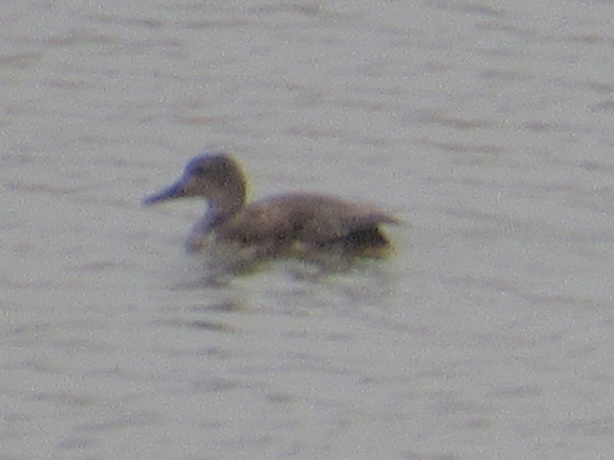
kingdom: Animalia
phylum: Chordata
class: Aves
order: Anseriformes
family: Anatidae
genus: Mareca
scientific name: Mareca strepera
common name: Gadwall
